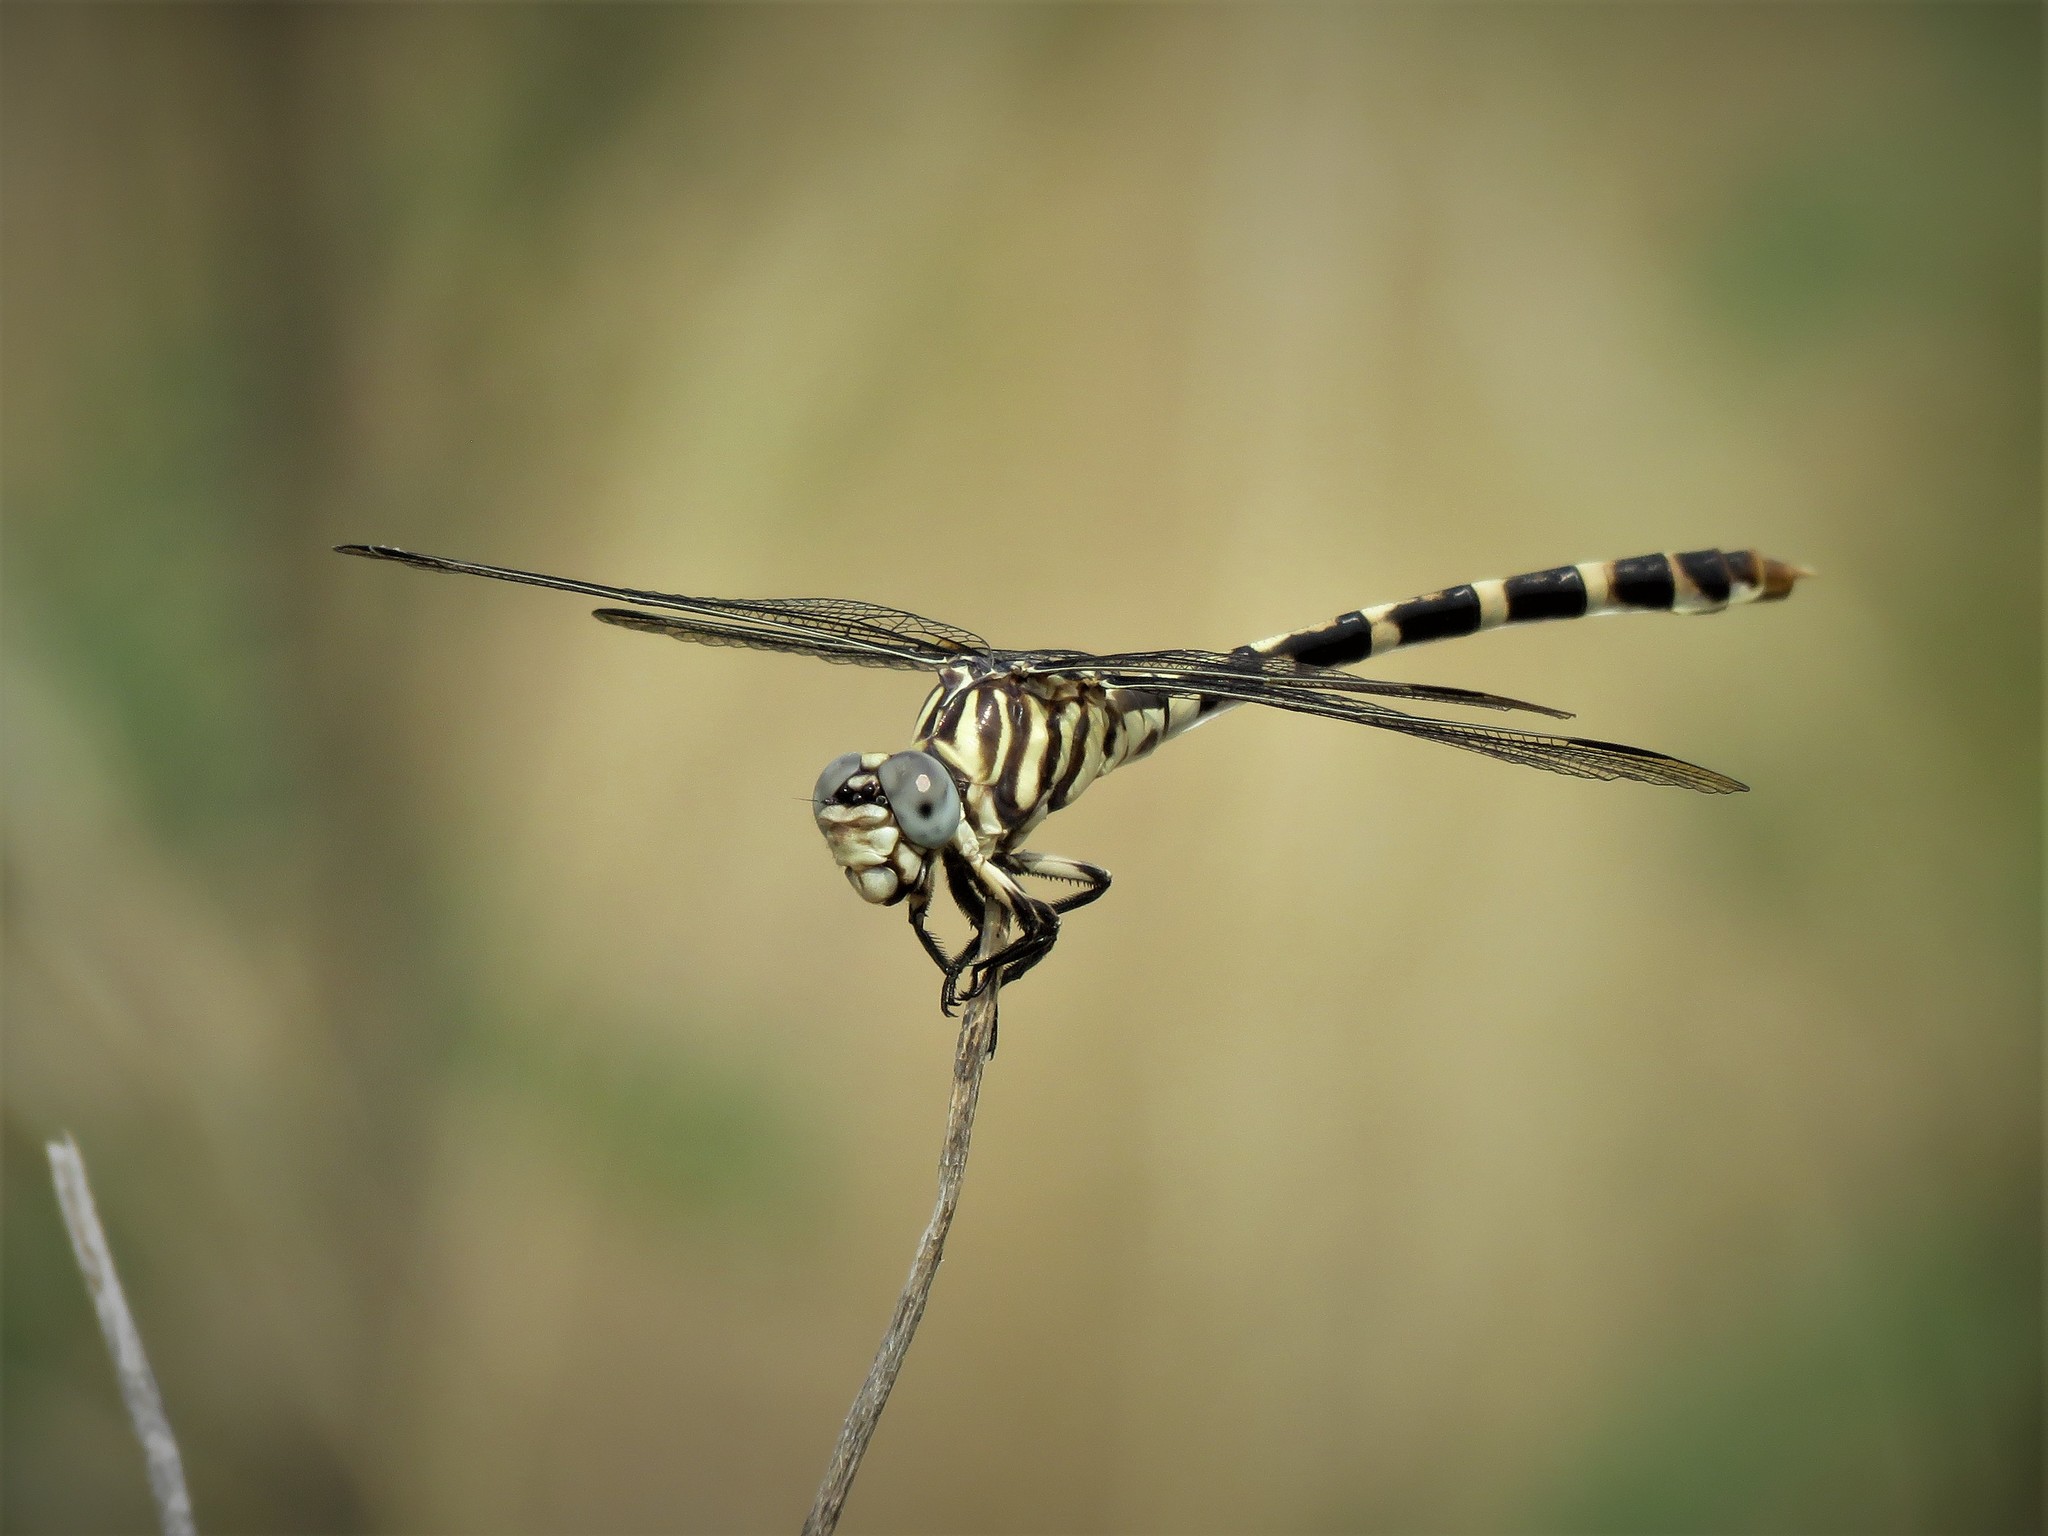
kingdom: Animalia
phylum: Arthropoda
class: Insecta
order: Odonata
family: Gomphidae
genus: Phyllogomphoides
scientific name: Phyllogomphoides stigmatus
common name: Four-striped leaftail
